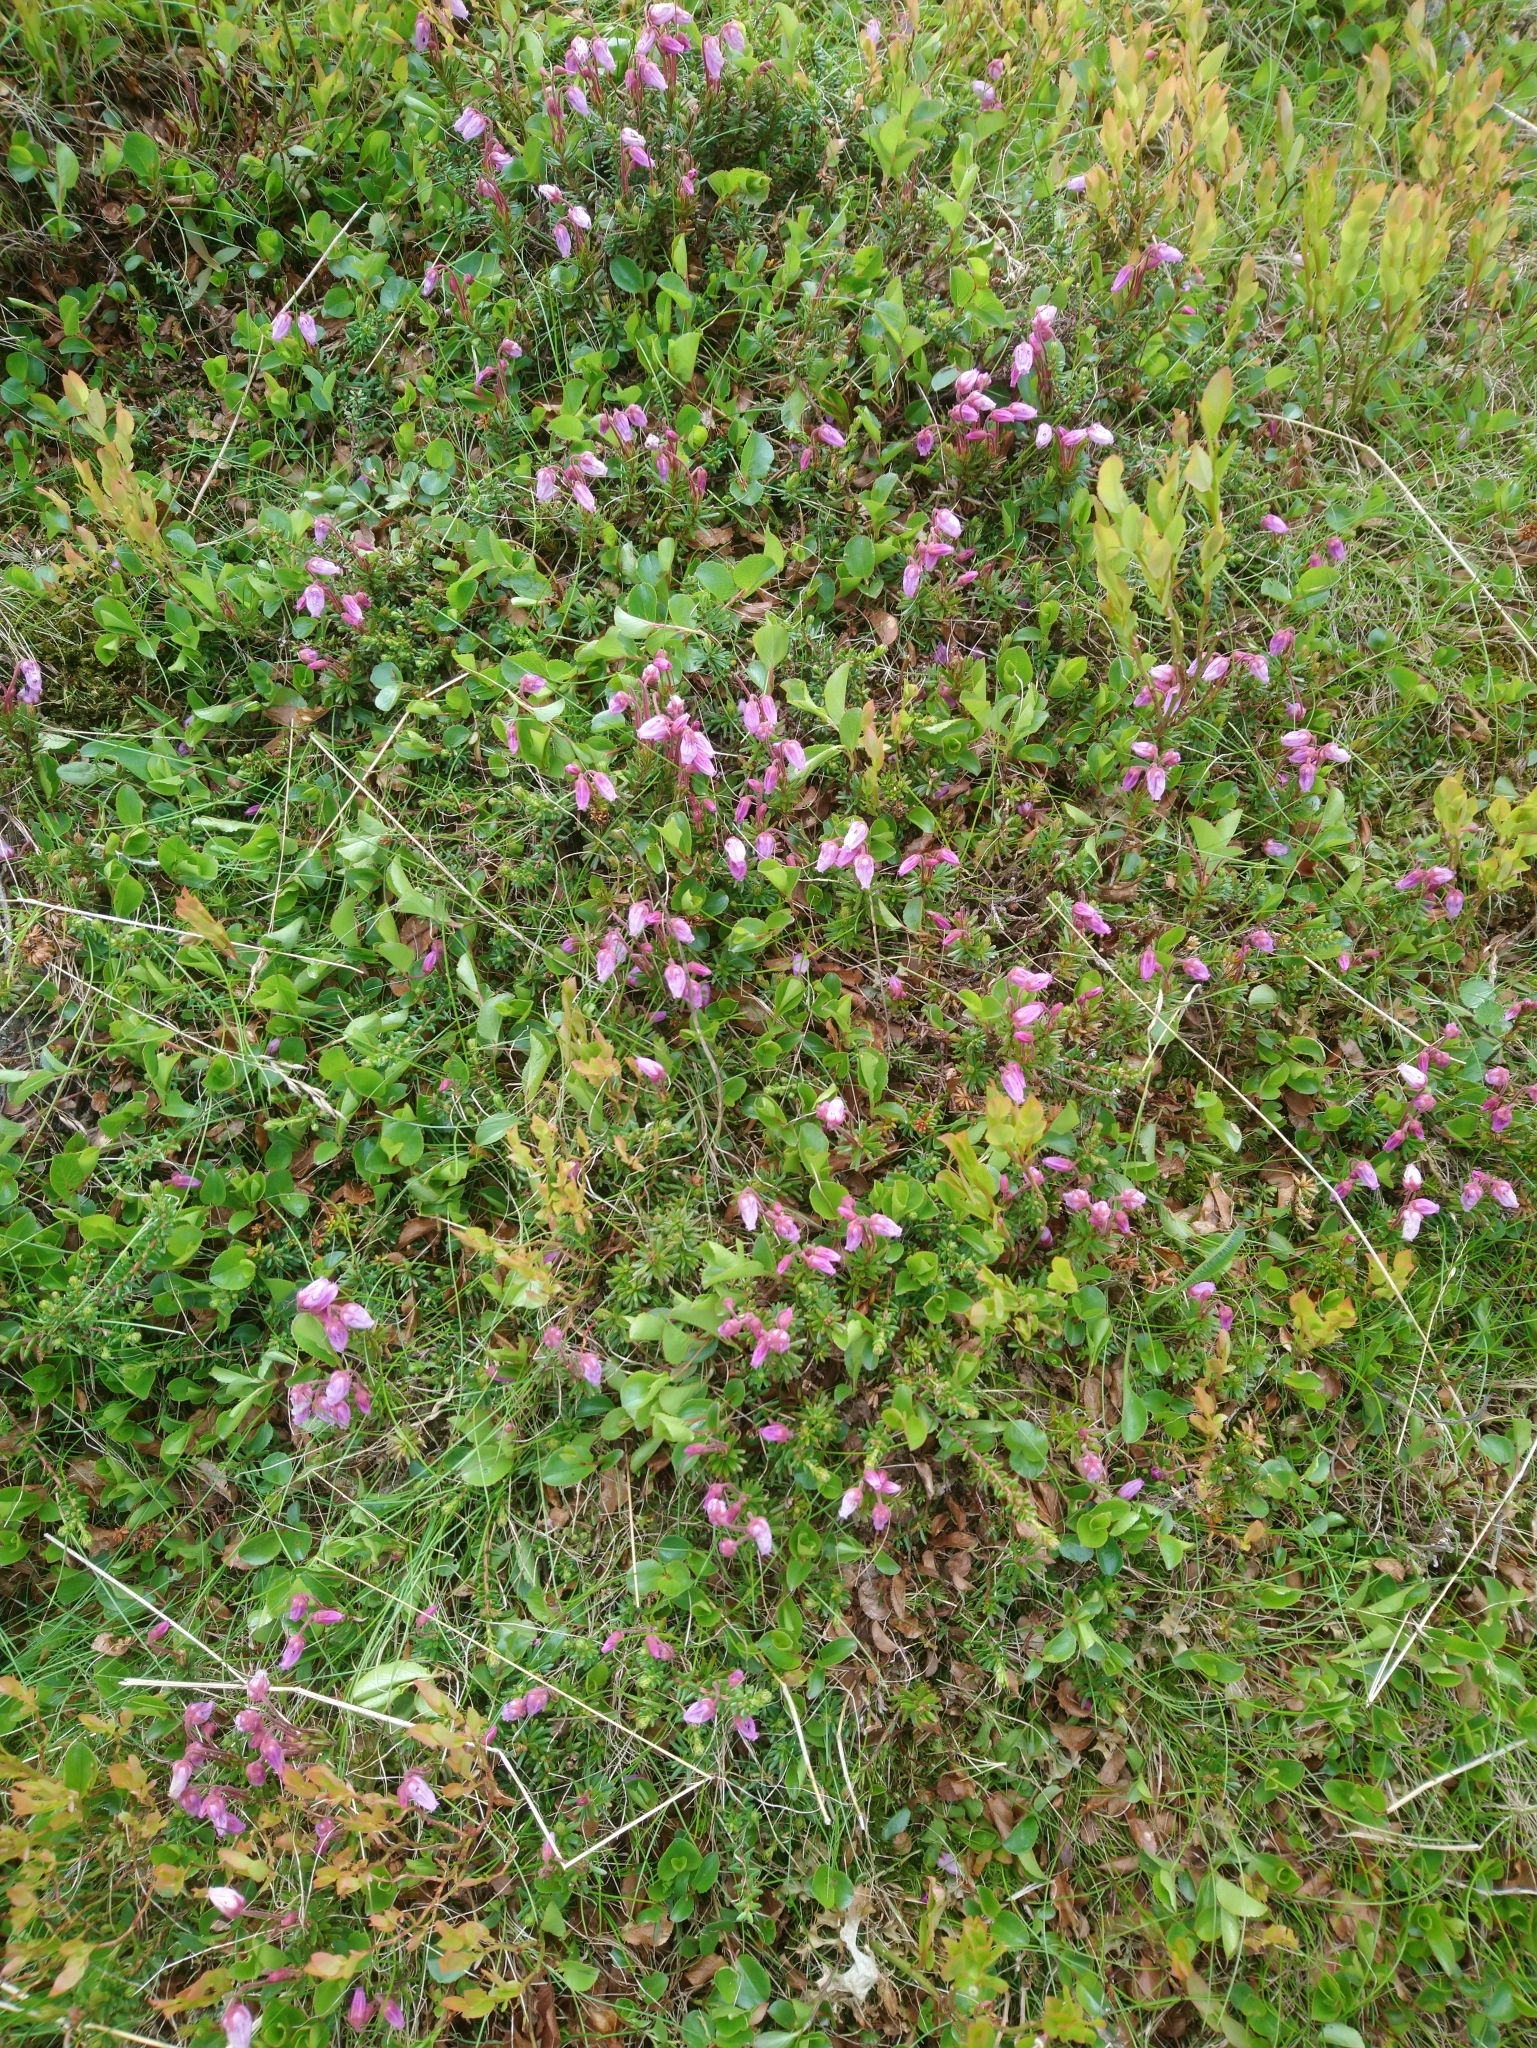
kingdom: Plantae
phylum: Tracheophyta
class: Magnoliopsida
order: Ericales
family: Ericaceae
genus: Phyllodoce
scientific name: Phyllodoce caerulea
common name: Blue heath
